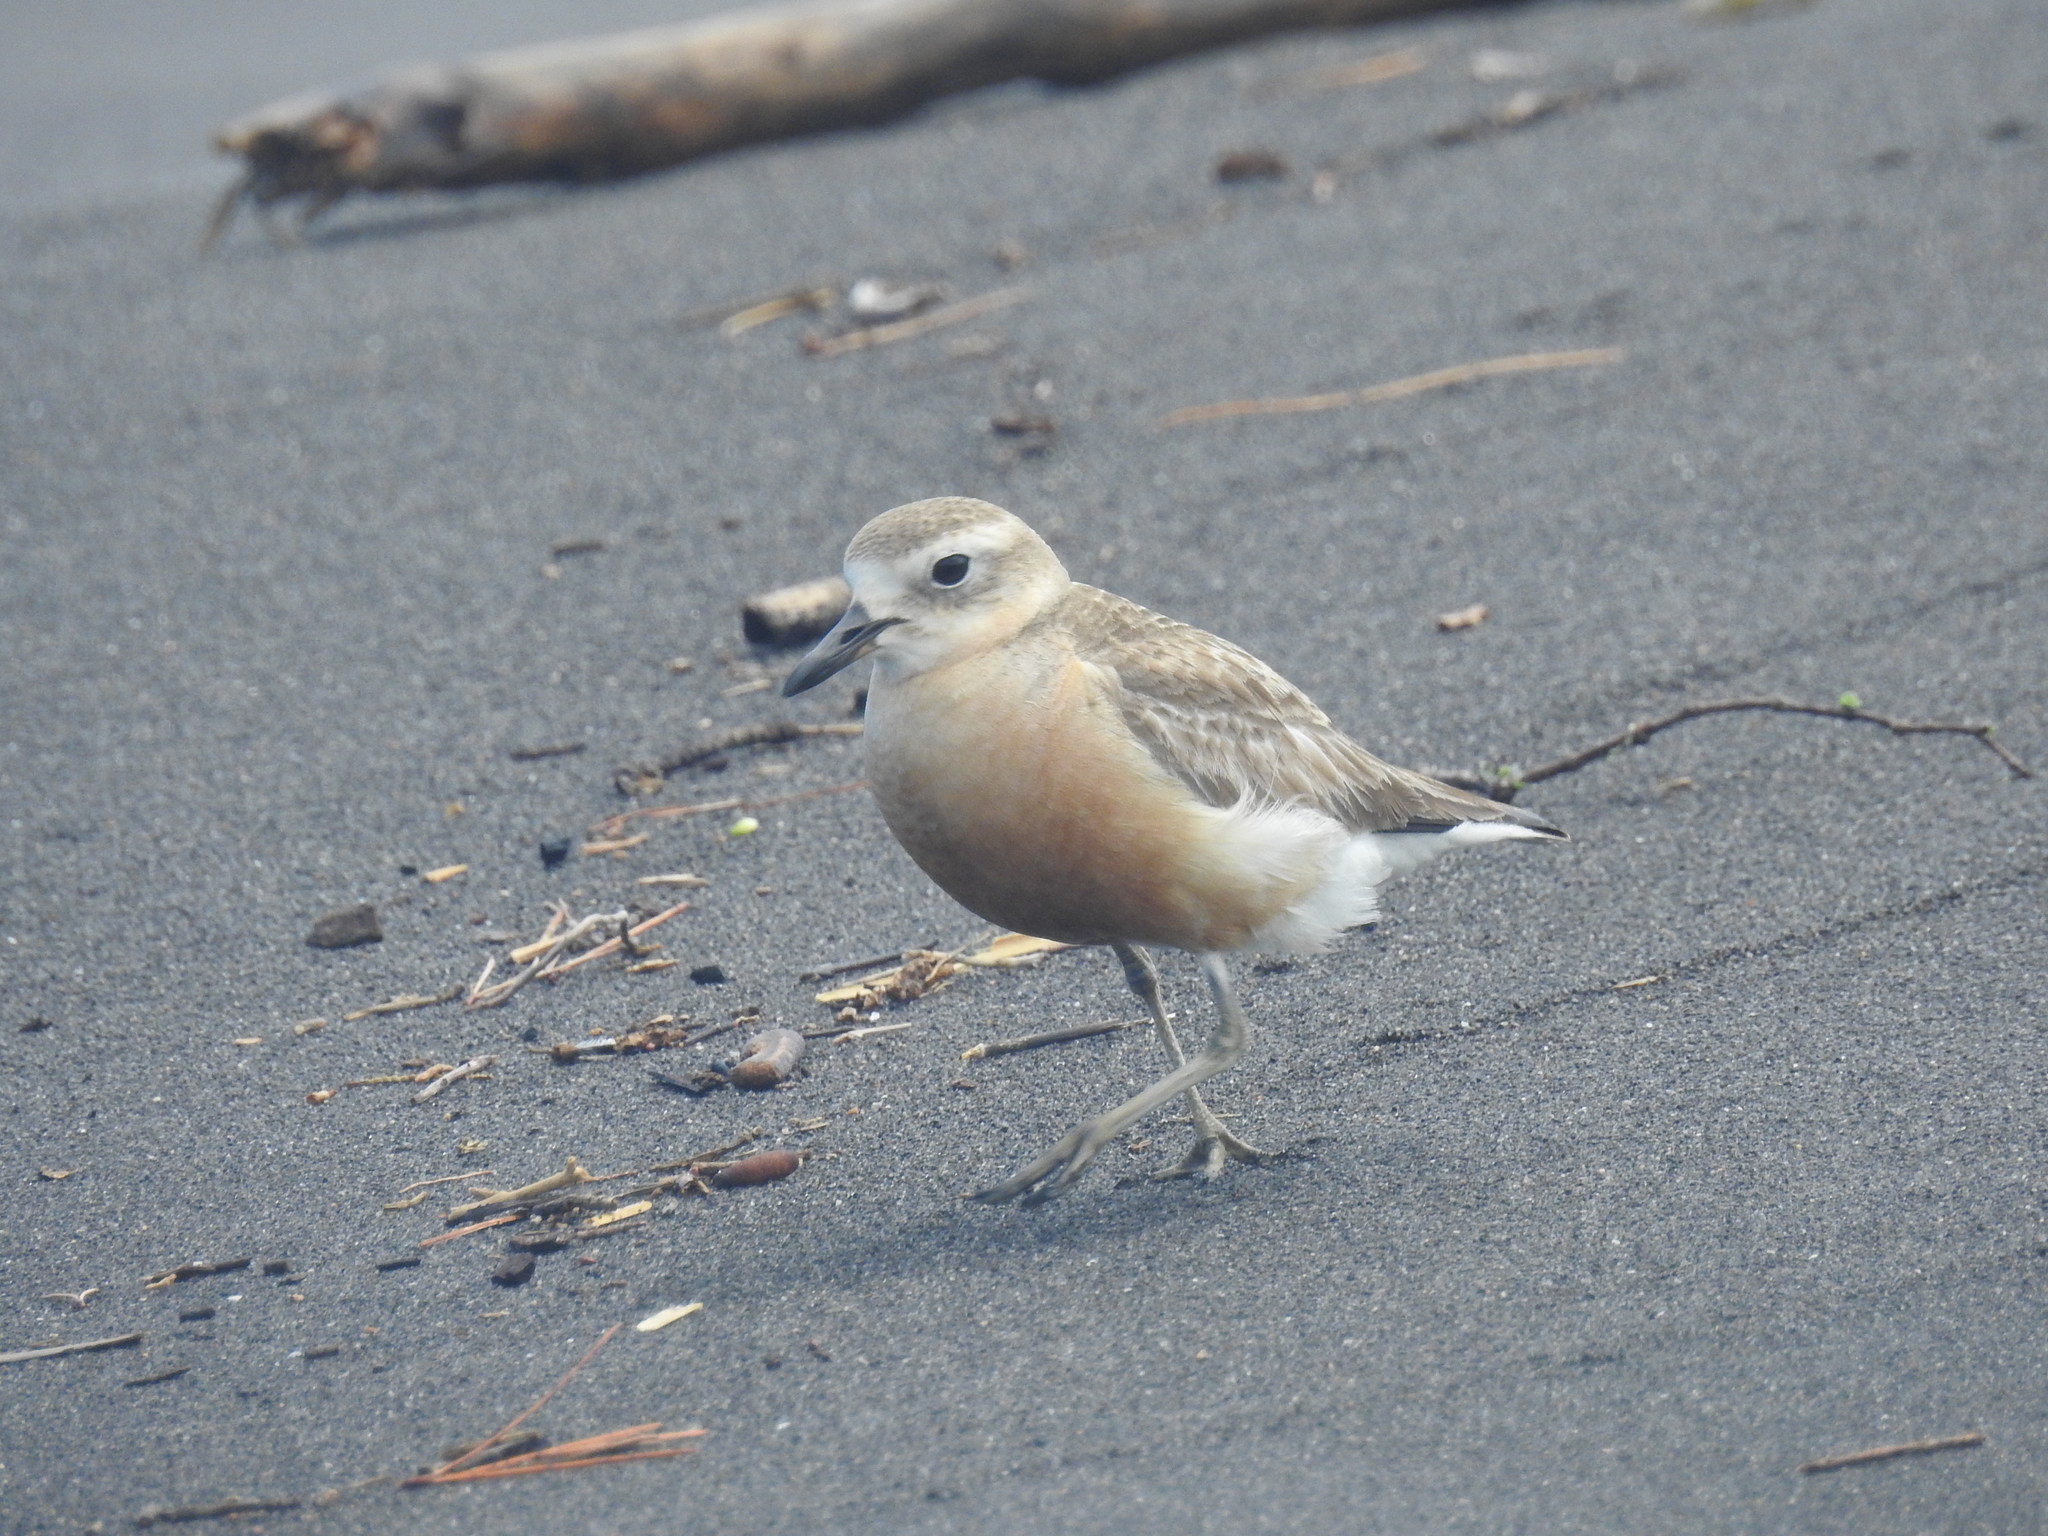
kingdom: Animalia
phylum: Chordata
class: Aves
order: Charadriiformes
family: Charadriidae
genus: Anarhynchus
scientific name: Anarhynchus
